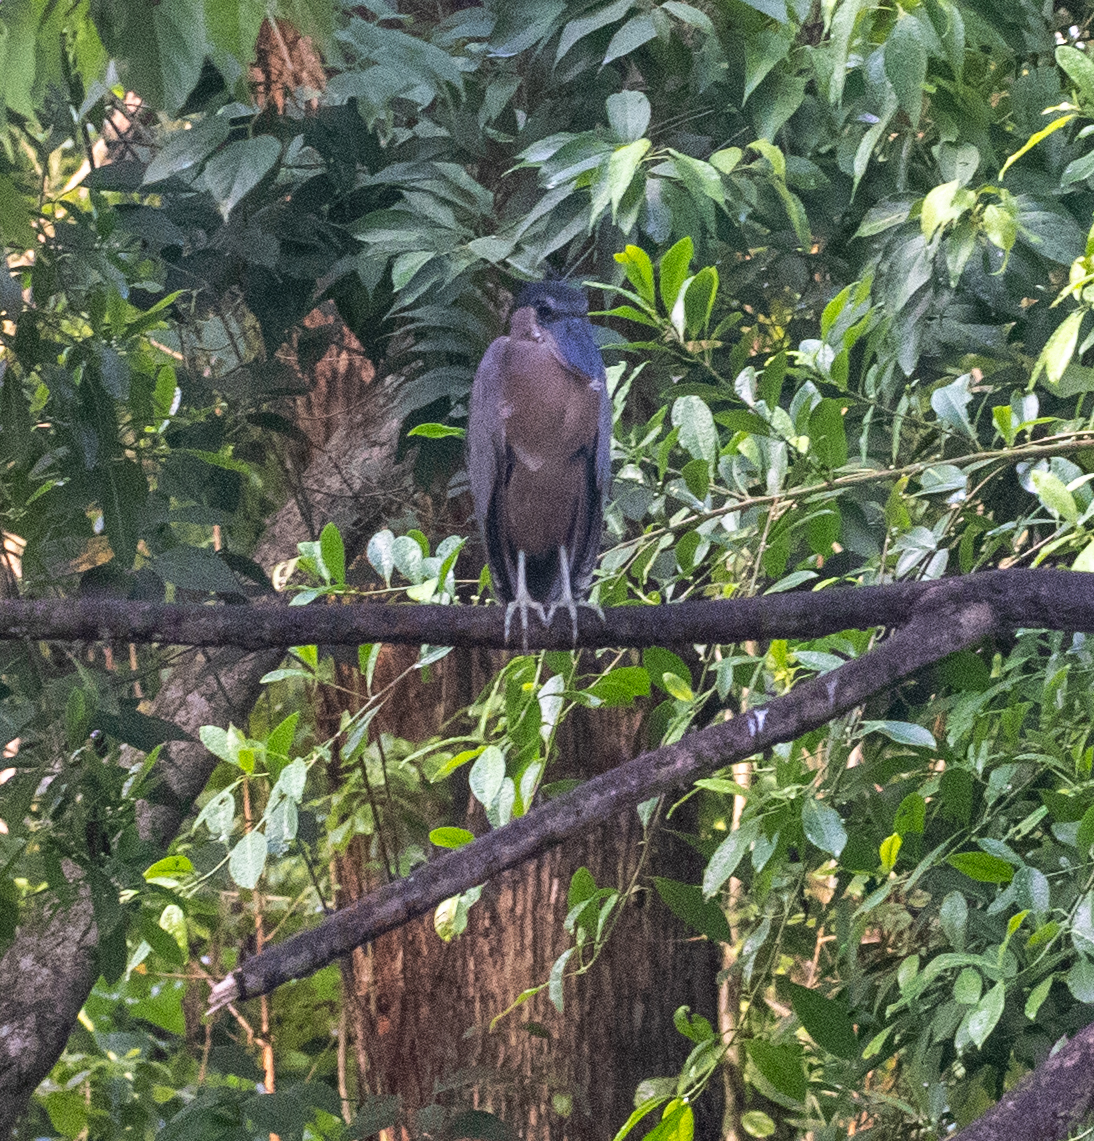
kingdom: Animalia
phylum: Chordata
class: Aves
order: Pelecaniformes
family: Ardeidae
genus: Cochlearius
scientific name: Cochlearius cochlearius
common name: Boat-billed heron
